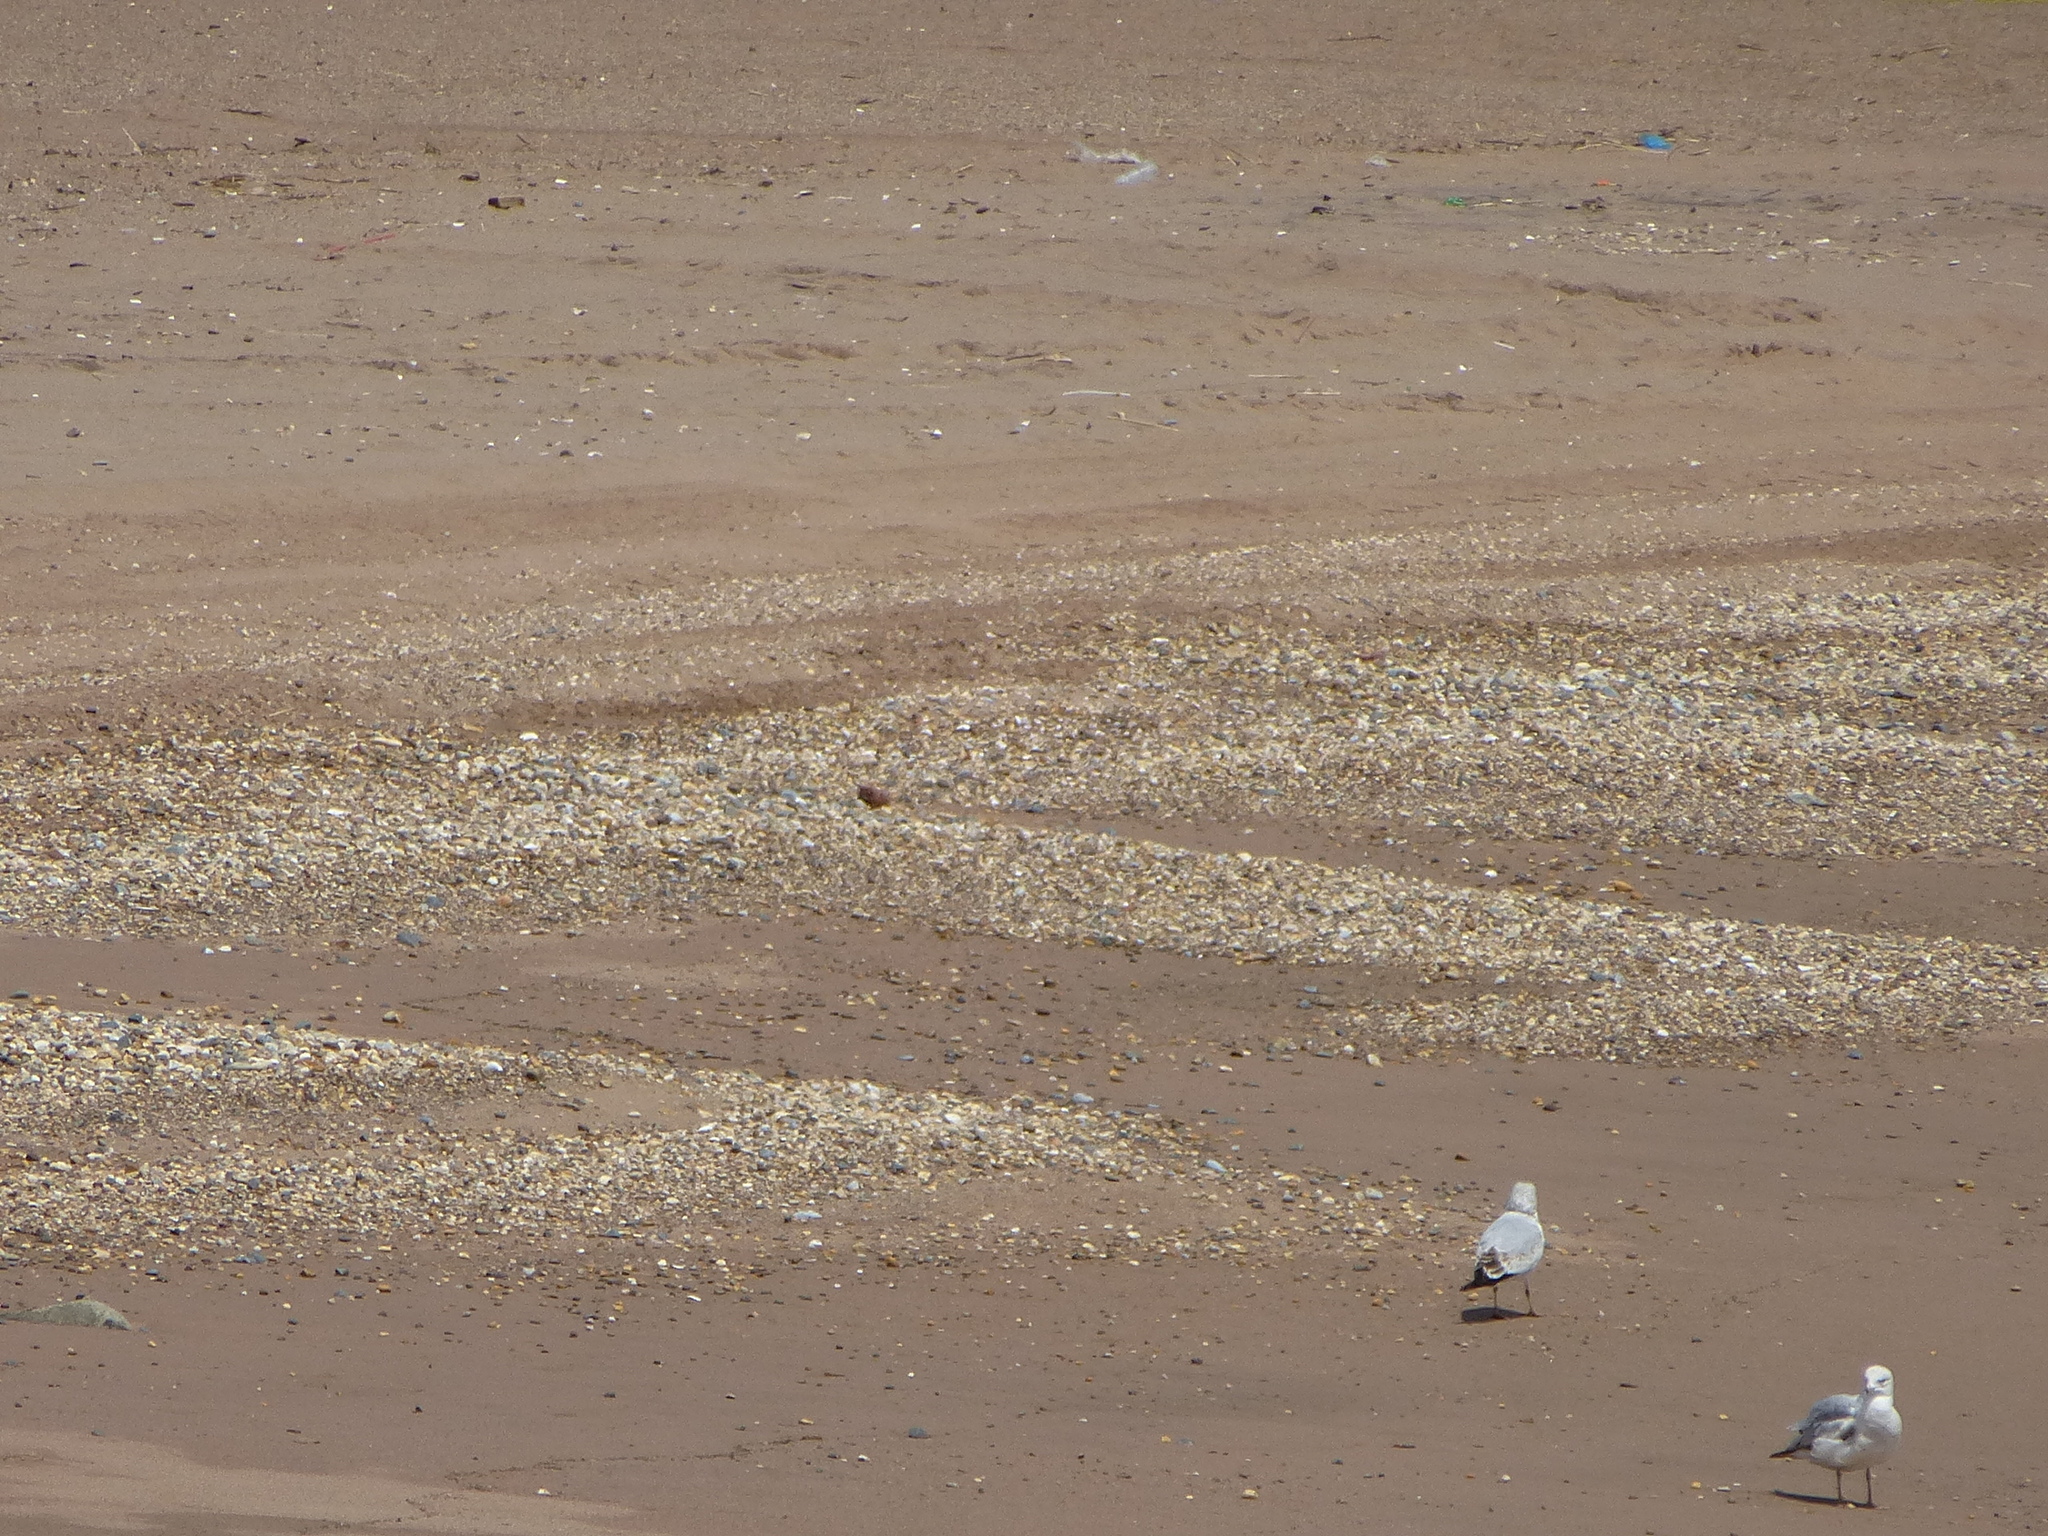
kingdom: Animalia
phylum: Chordata
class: Aves
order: Charadriiformes
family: Laridae
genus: Larus
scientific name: Larus argentatus
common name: Herring gull
